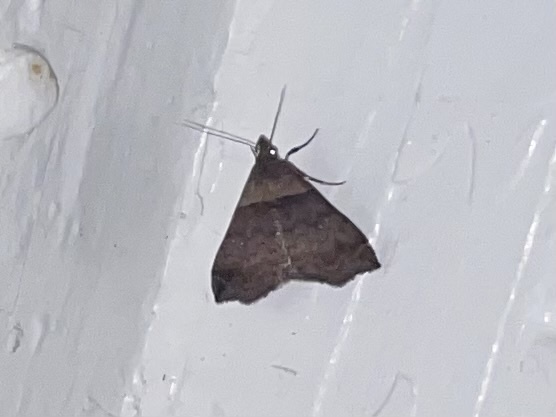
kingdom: Animalia
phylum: Arthropoda
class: Insecta
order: Lepidoptera
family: Erebidae
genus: Lascoria
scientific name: Lascoria ambigualis
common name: Ambiguous moth
